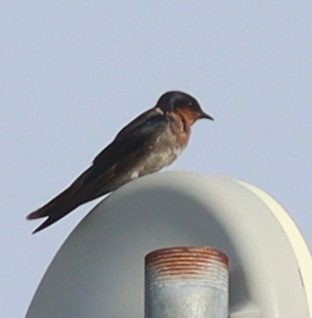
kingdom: Animalia
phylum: Chordata
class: Aves
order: Passeriformes
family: Hirundinidae
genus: Hirundo
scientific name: Hirundo tahitica
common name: Pacific swallow
